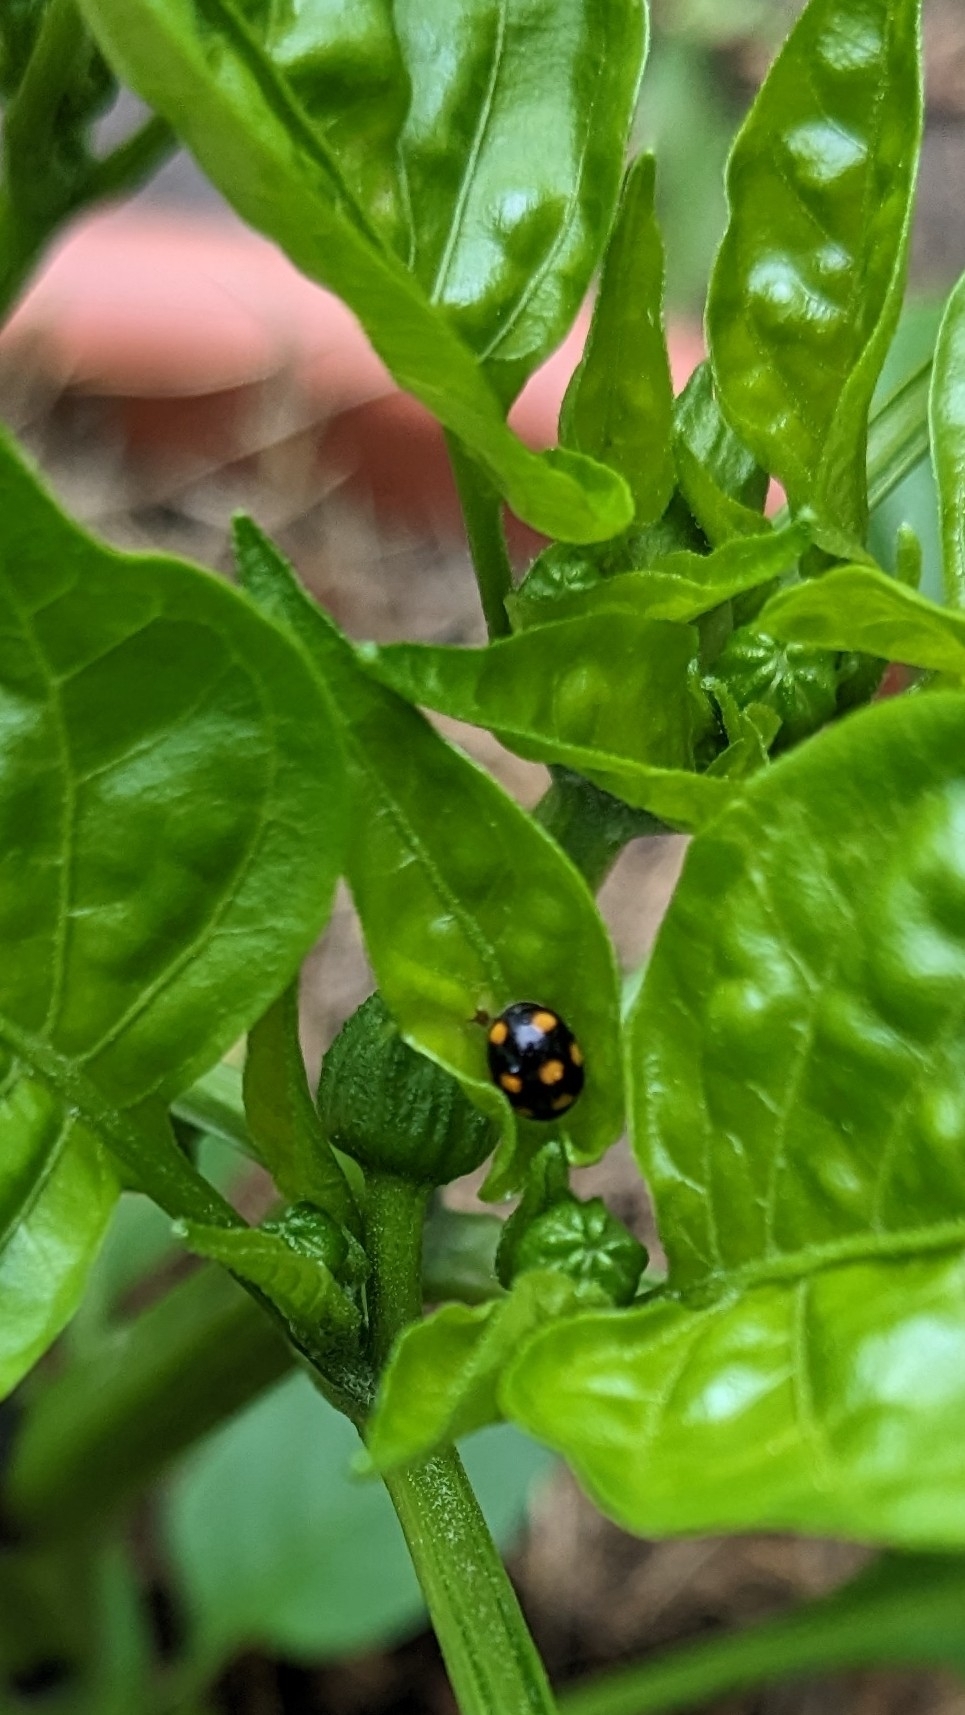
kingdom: Animalia
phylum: Arthropoda
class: Insecta
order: Coleoptera
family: Coccinellidae
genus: Brachiacantha
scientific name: Brachiacantha ursina
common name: Ursine spurleg lady beetle
